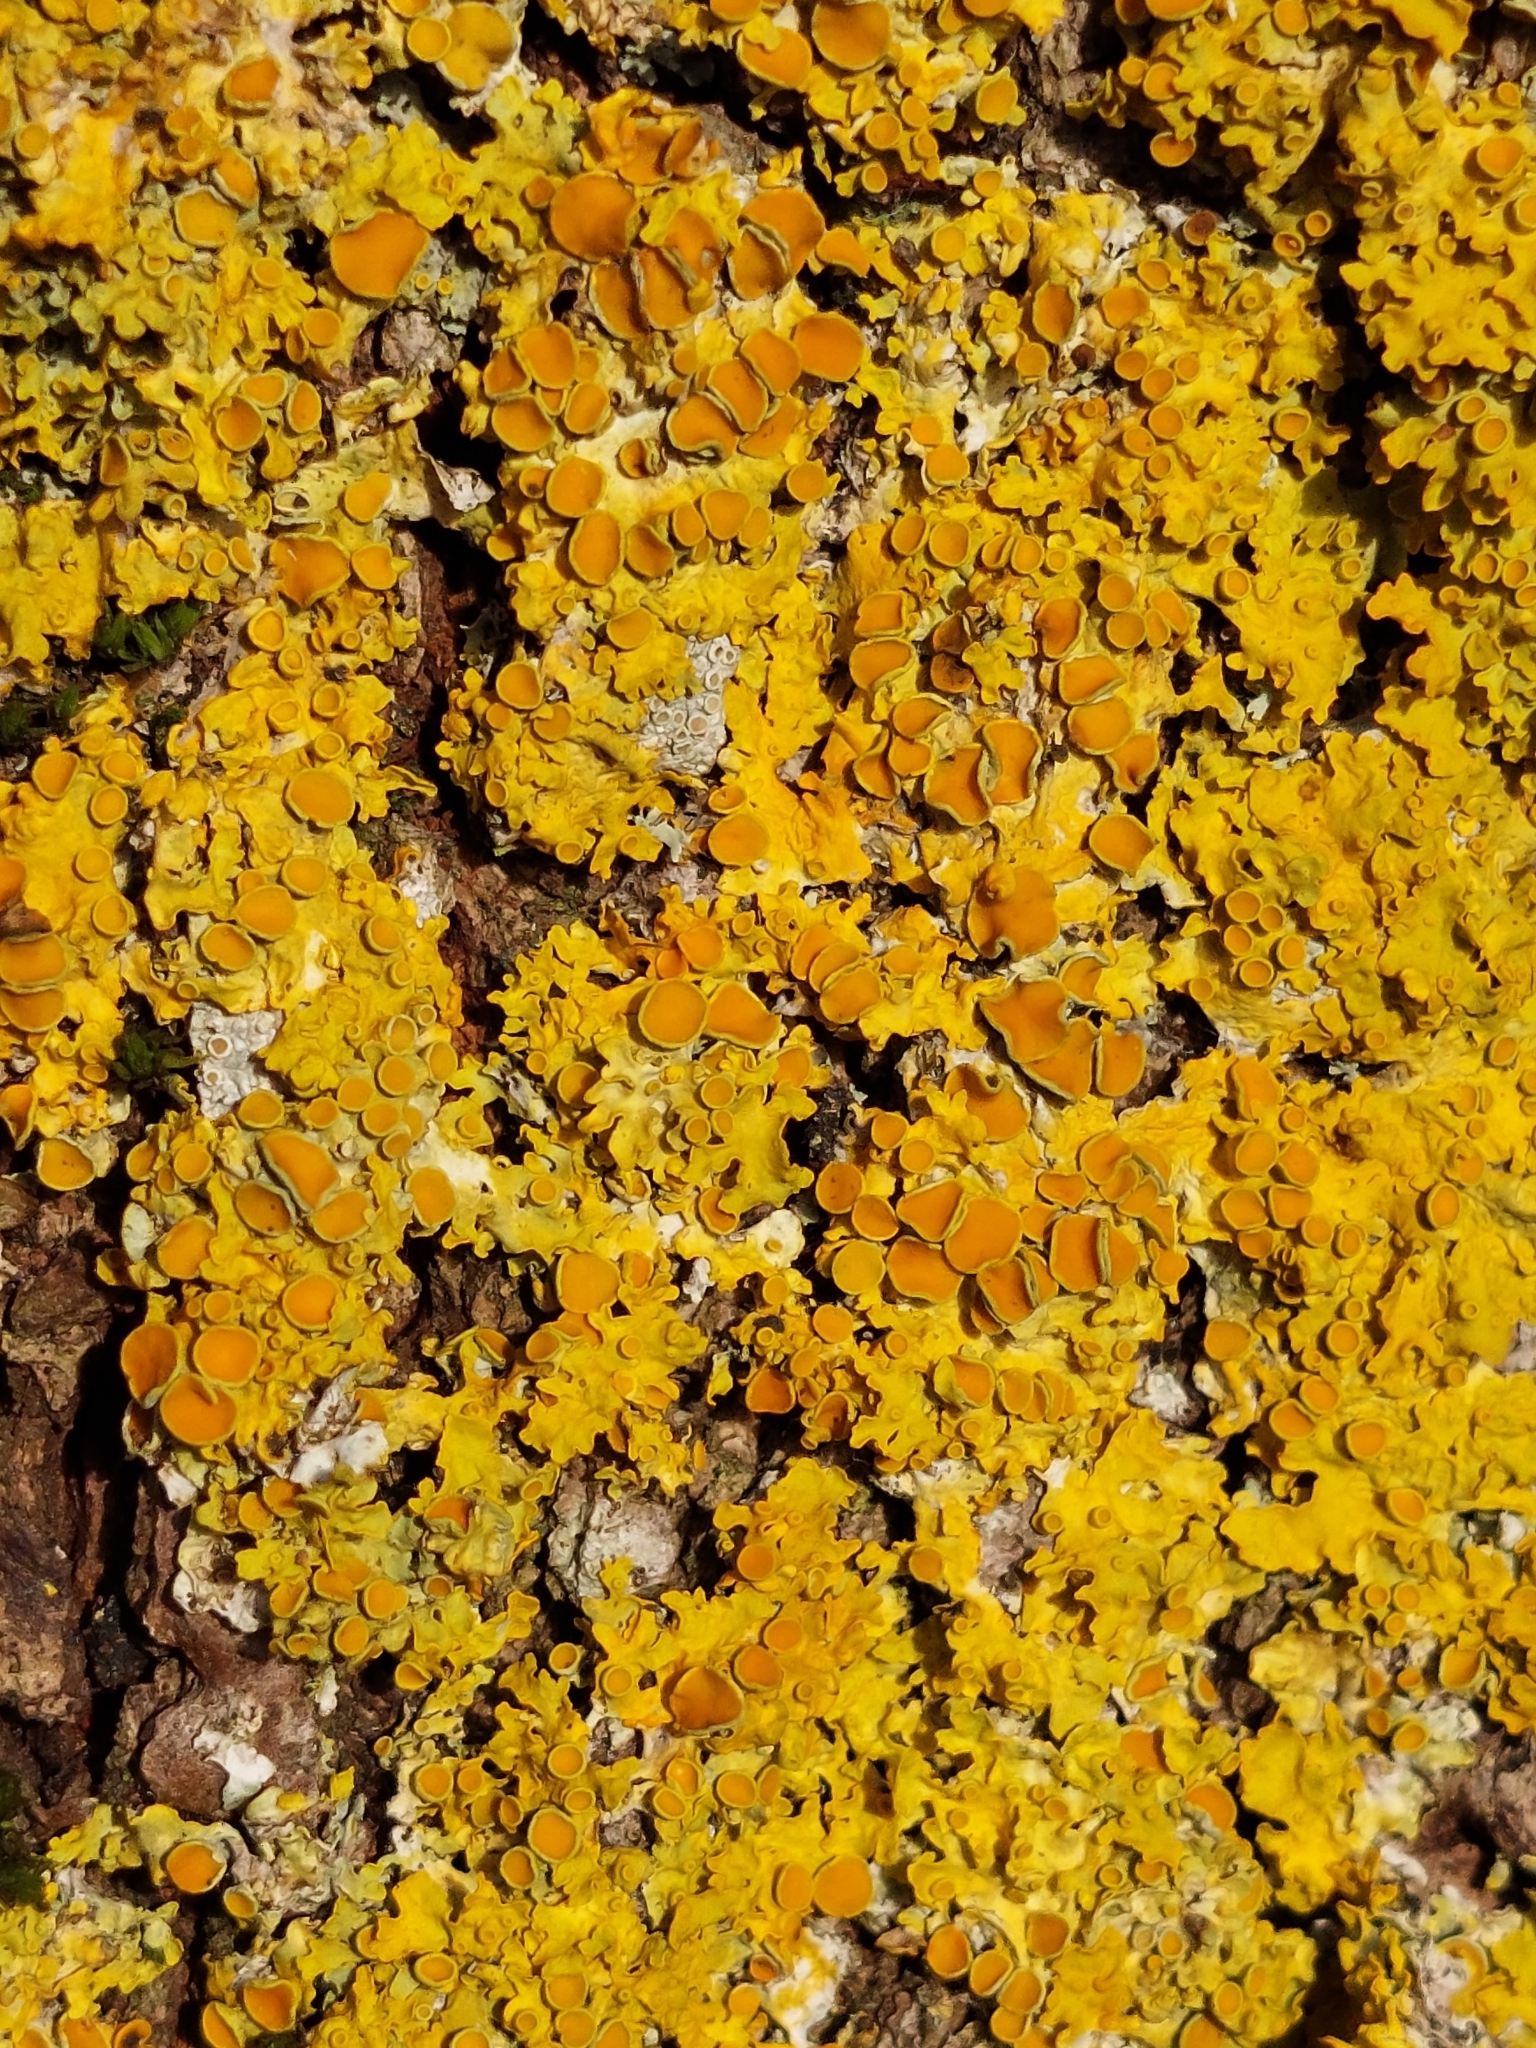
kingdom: Fungi
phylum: Ascomycota
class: Lecanoromycetes
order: Teloschistales
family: Teloschistaceae
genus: Xanthoria
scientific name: Xanthoria parietina
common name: Common orange lichen
